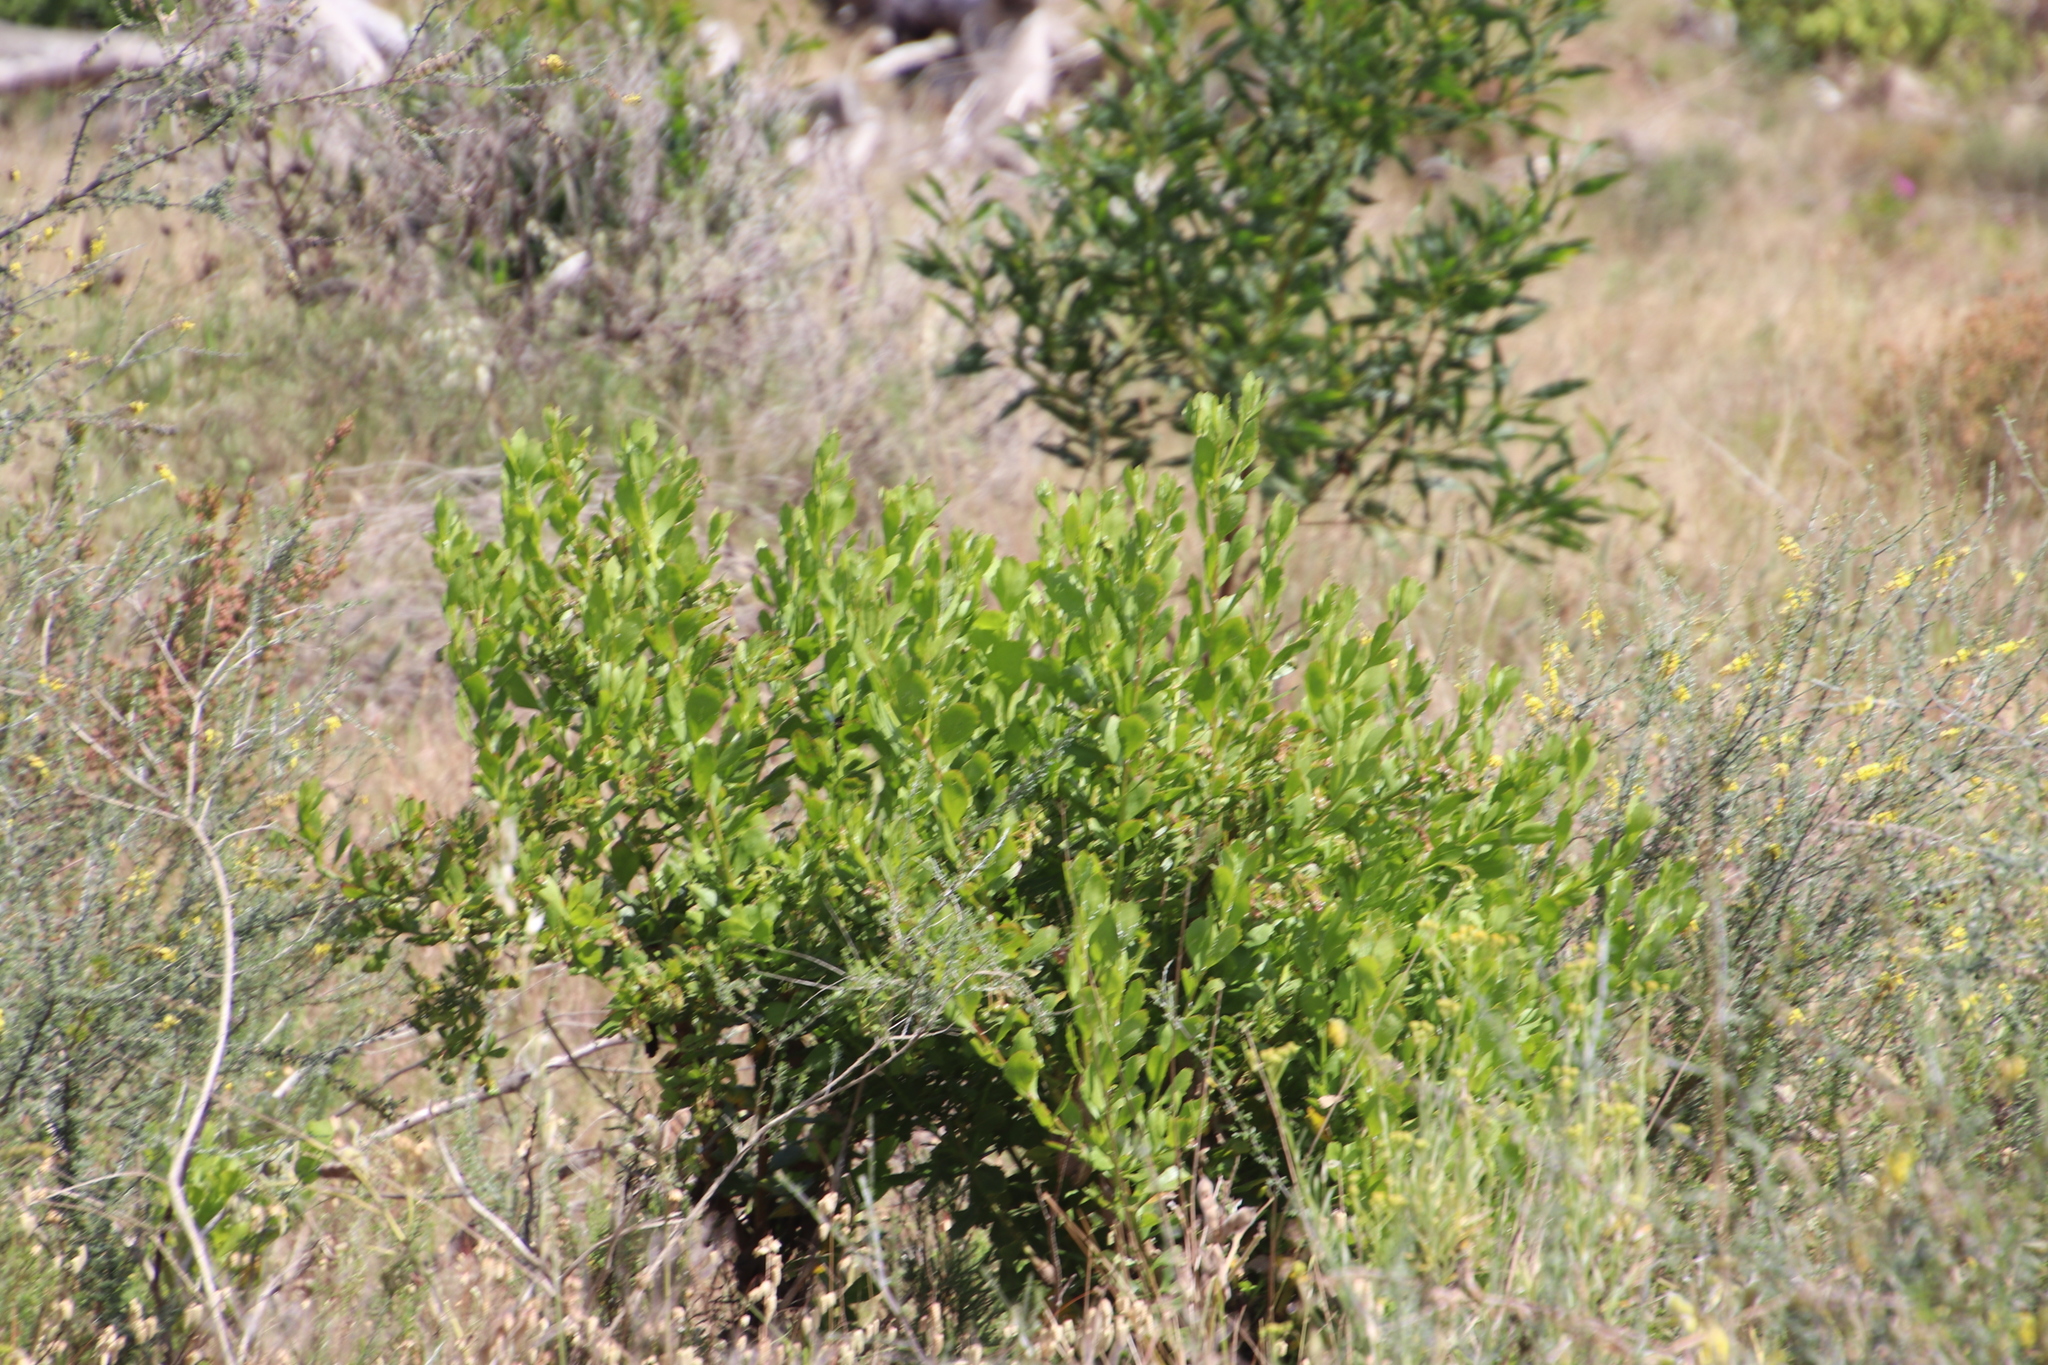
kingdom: Plantae
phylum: Tracheophyta
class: Magnoliopsida
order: Asterales
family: Asteraceae
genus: Osteospermum
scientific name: Osteospermum moniliferum
